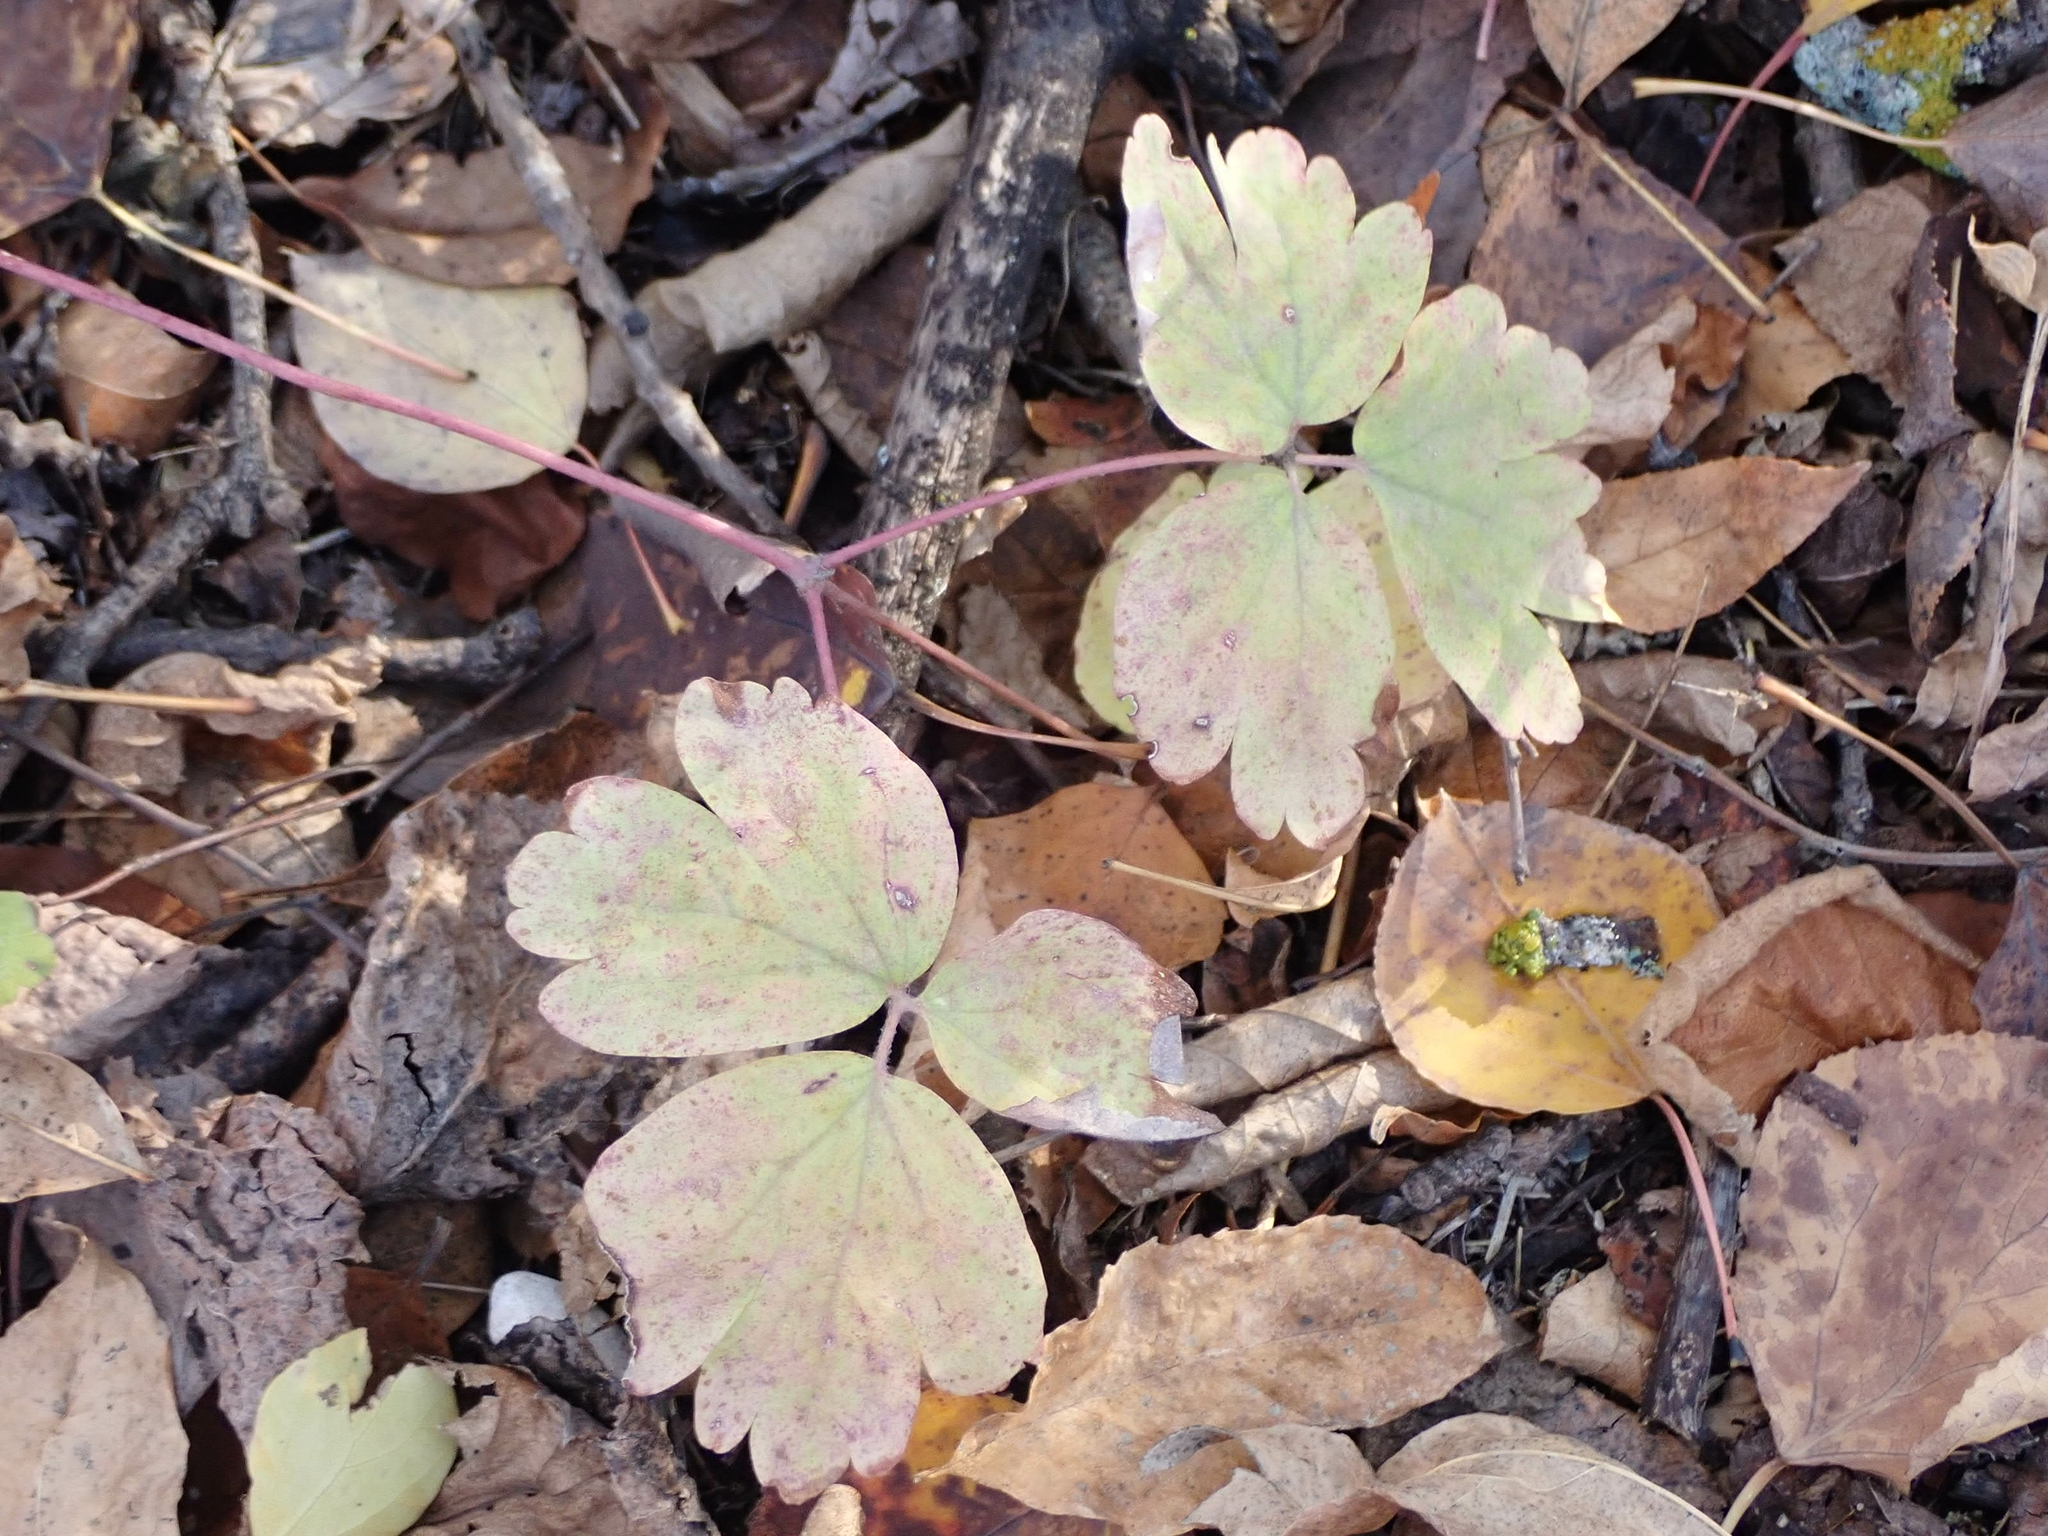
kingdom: Plantae
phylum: Tracheophyta
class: Magnoliopsida
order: Ranunculales
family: Ranunculaceae
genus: Aquilegia
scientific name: Aquilegia canadensis
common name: American columbine
